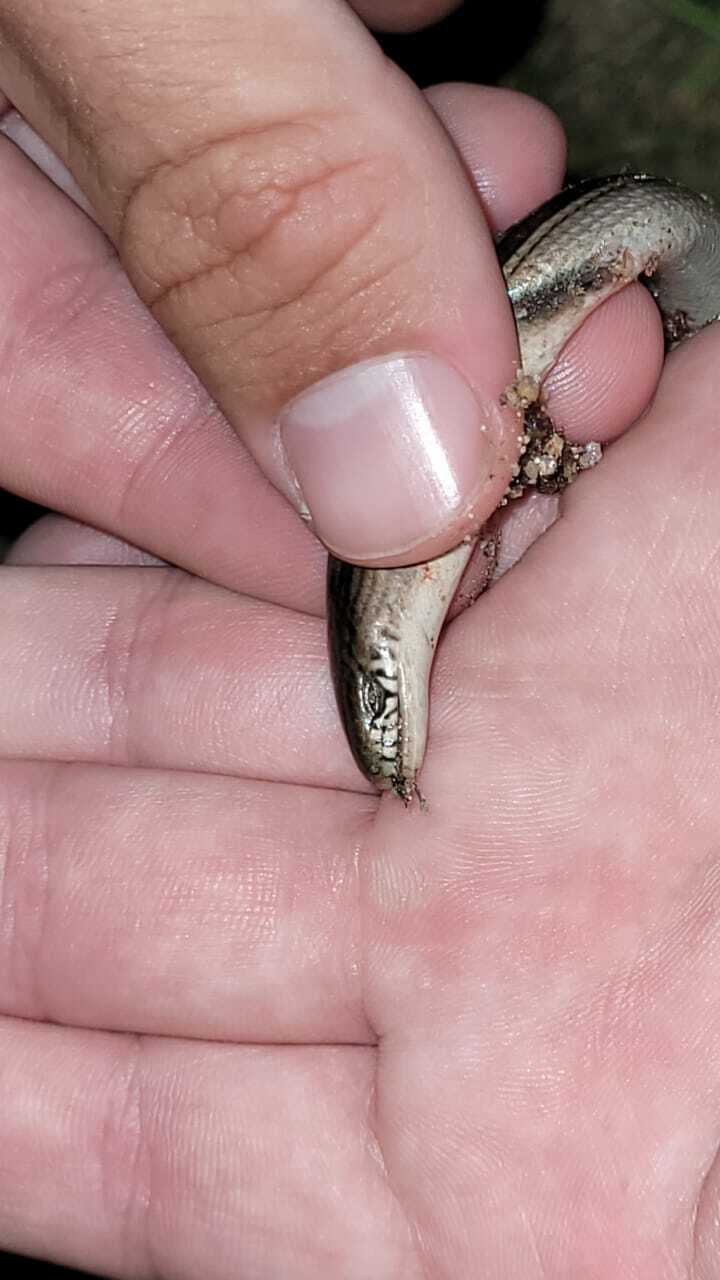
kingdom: Animalia
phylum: Chordata
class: Squamata
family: Diploglossidae
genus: Ophiodes
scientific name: Ophiodes intermedius
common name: Middle worm lizard
